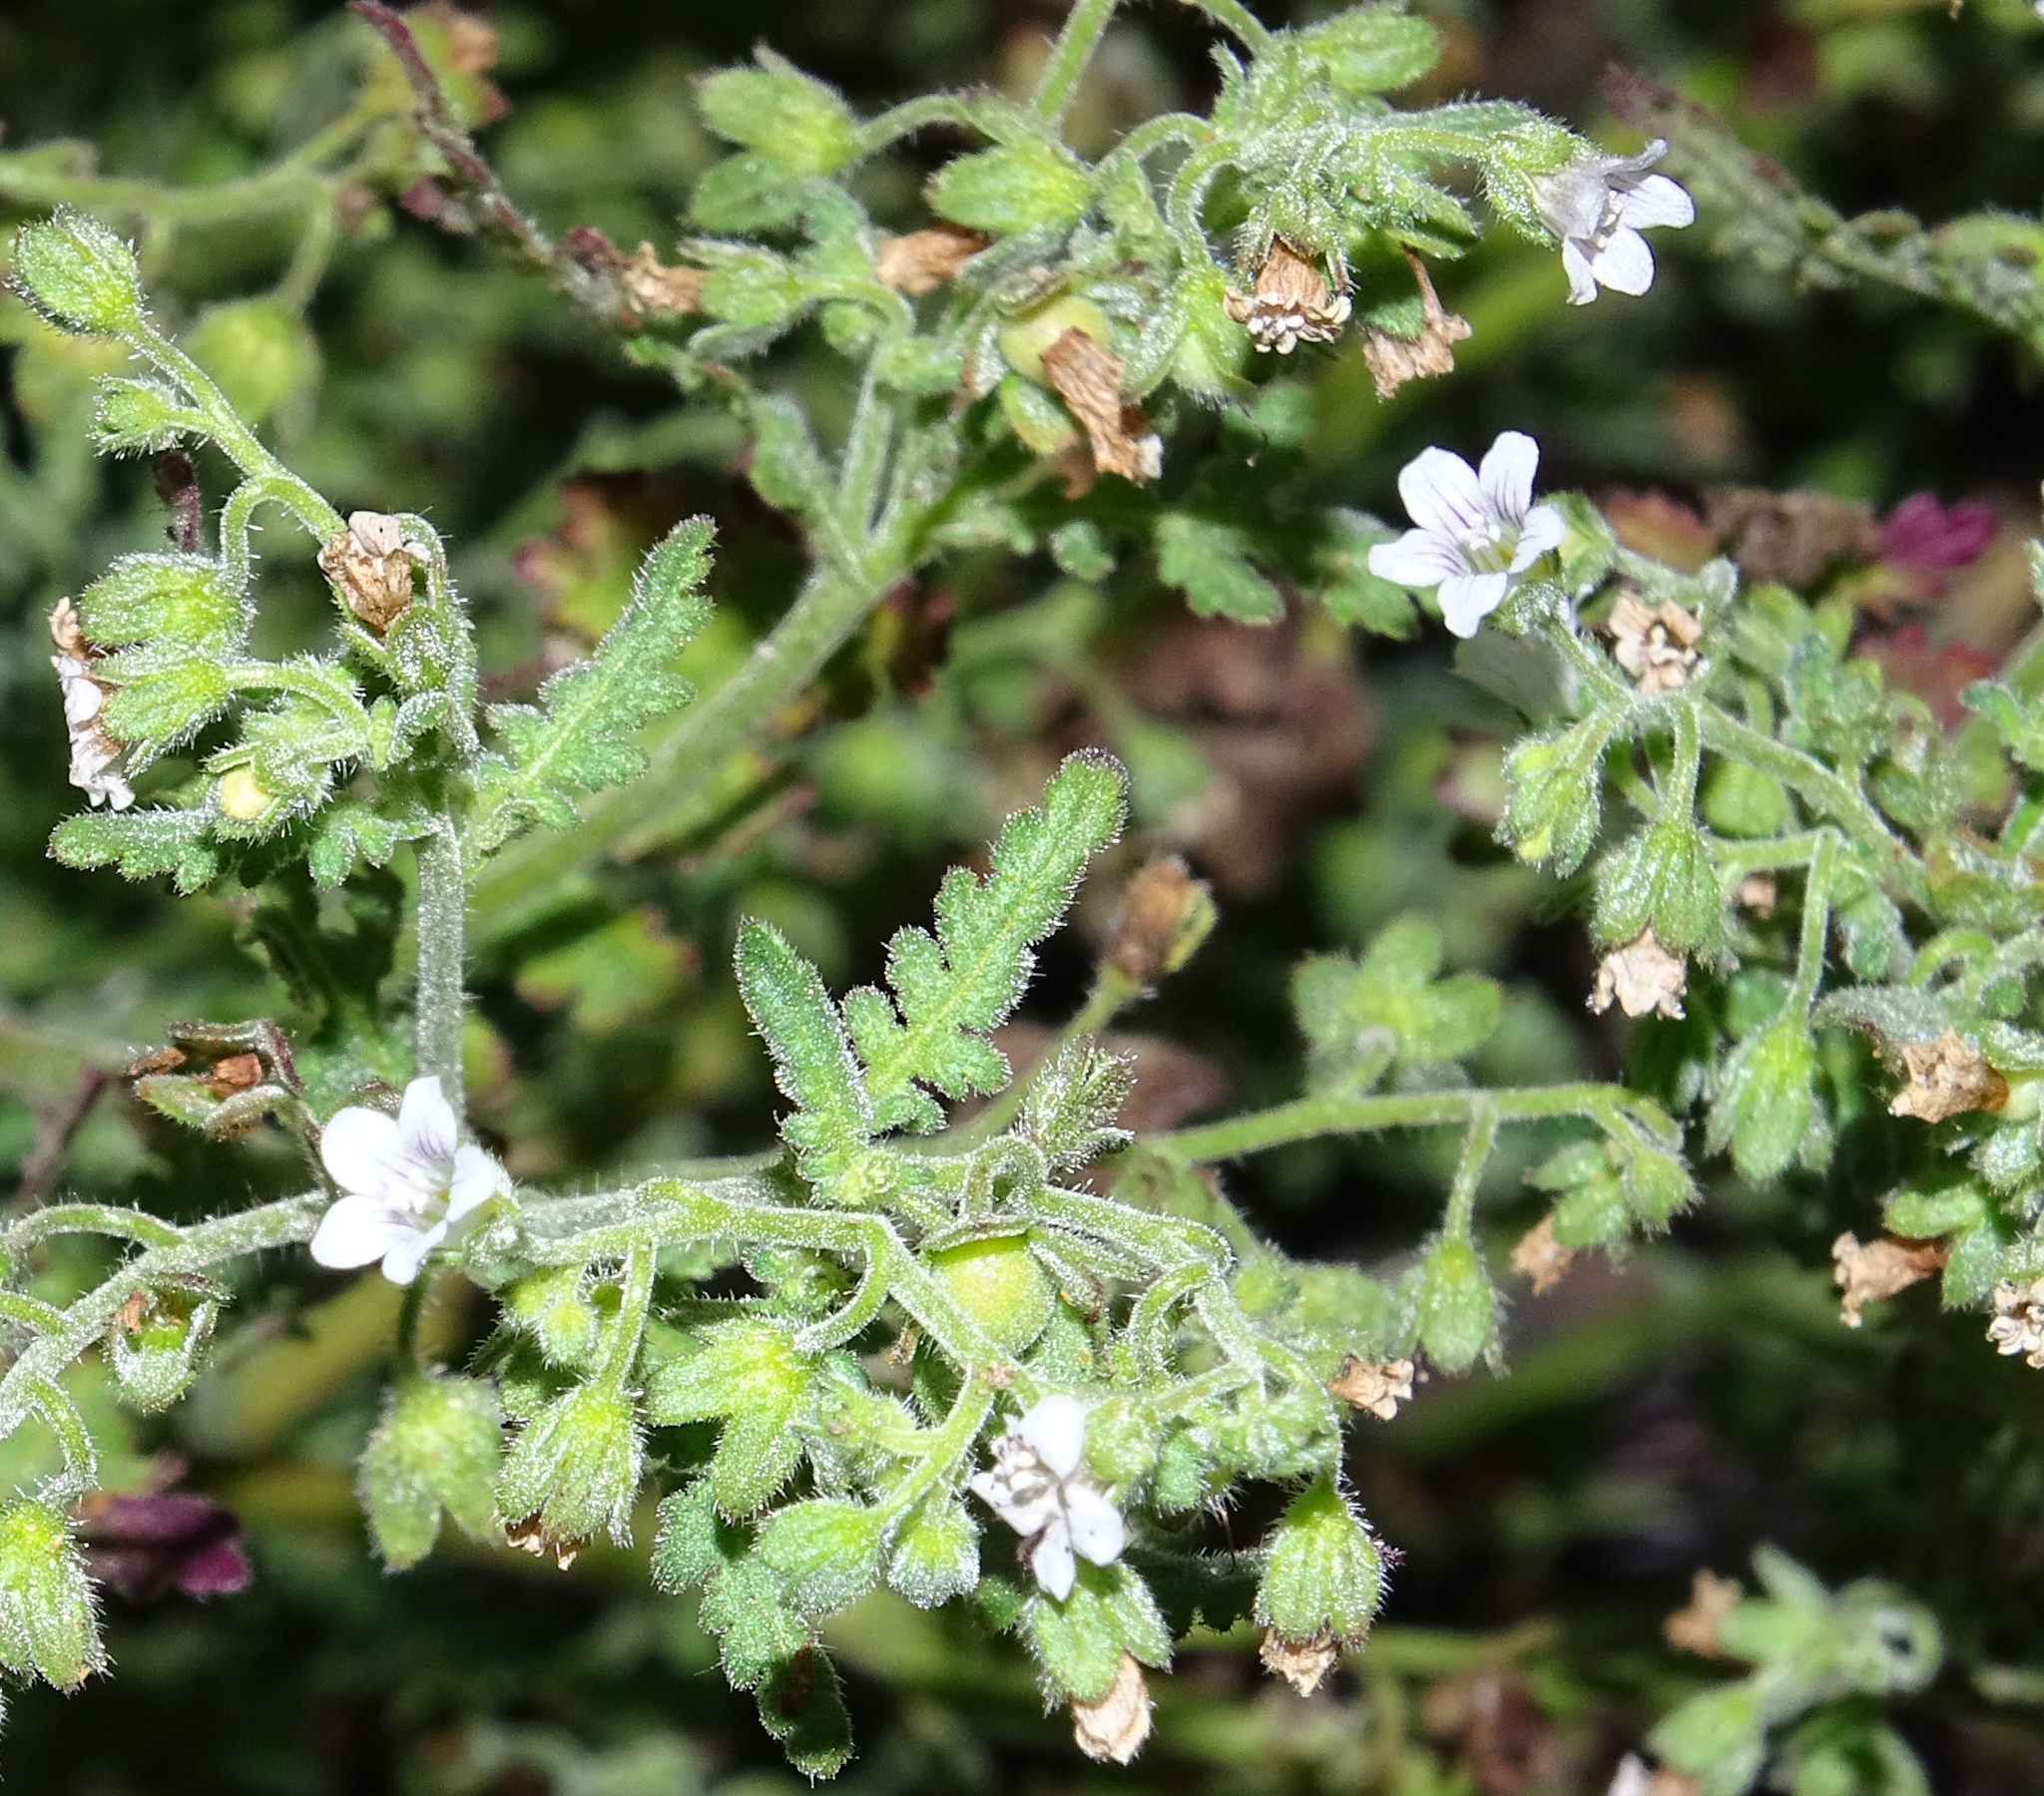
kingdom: Plantae
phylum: Tracheophyta
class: Magnoliopsida
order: Boraginales
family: Hydrophyllaceae
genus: Eucrypta
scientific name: Eucrypta chrysanthemifolia
